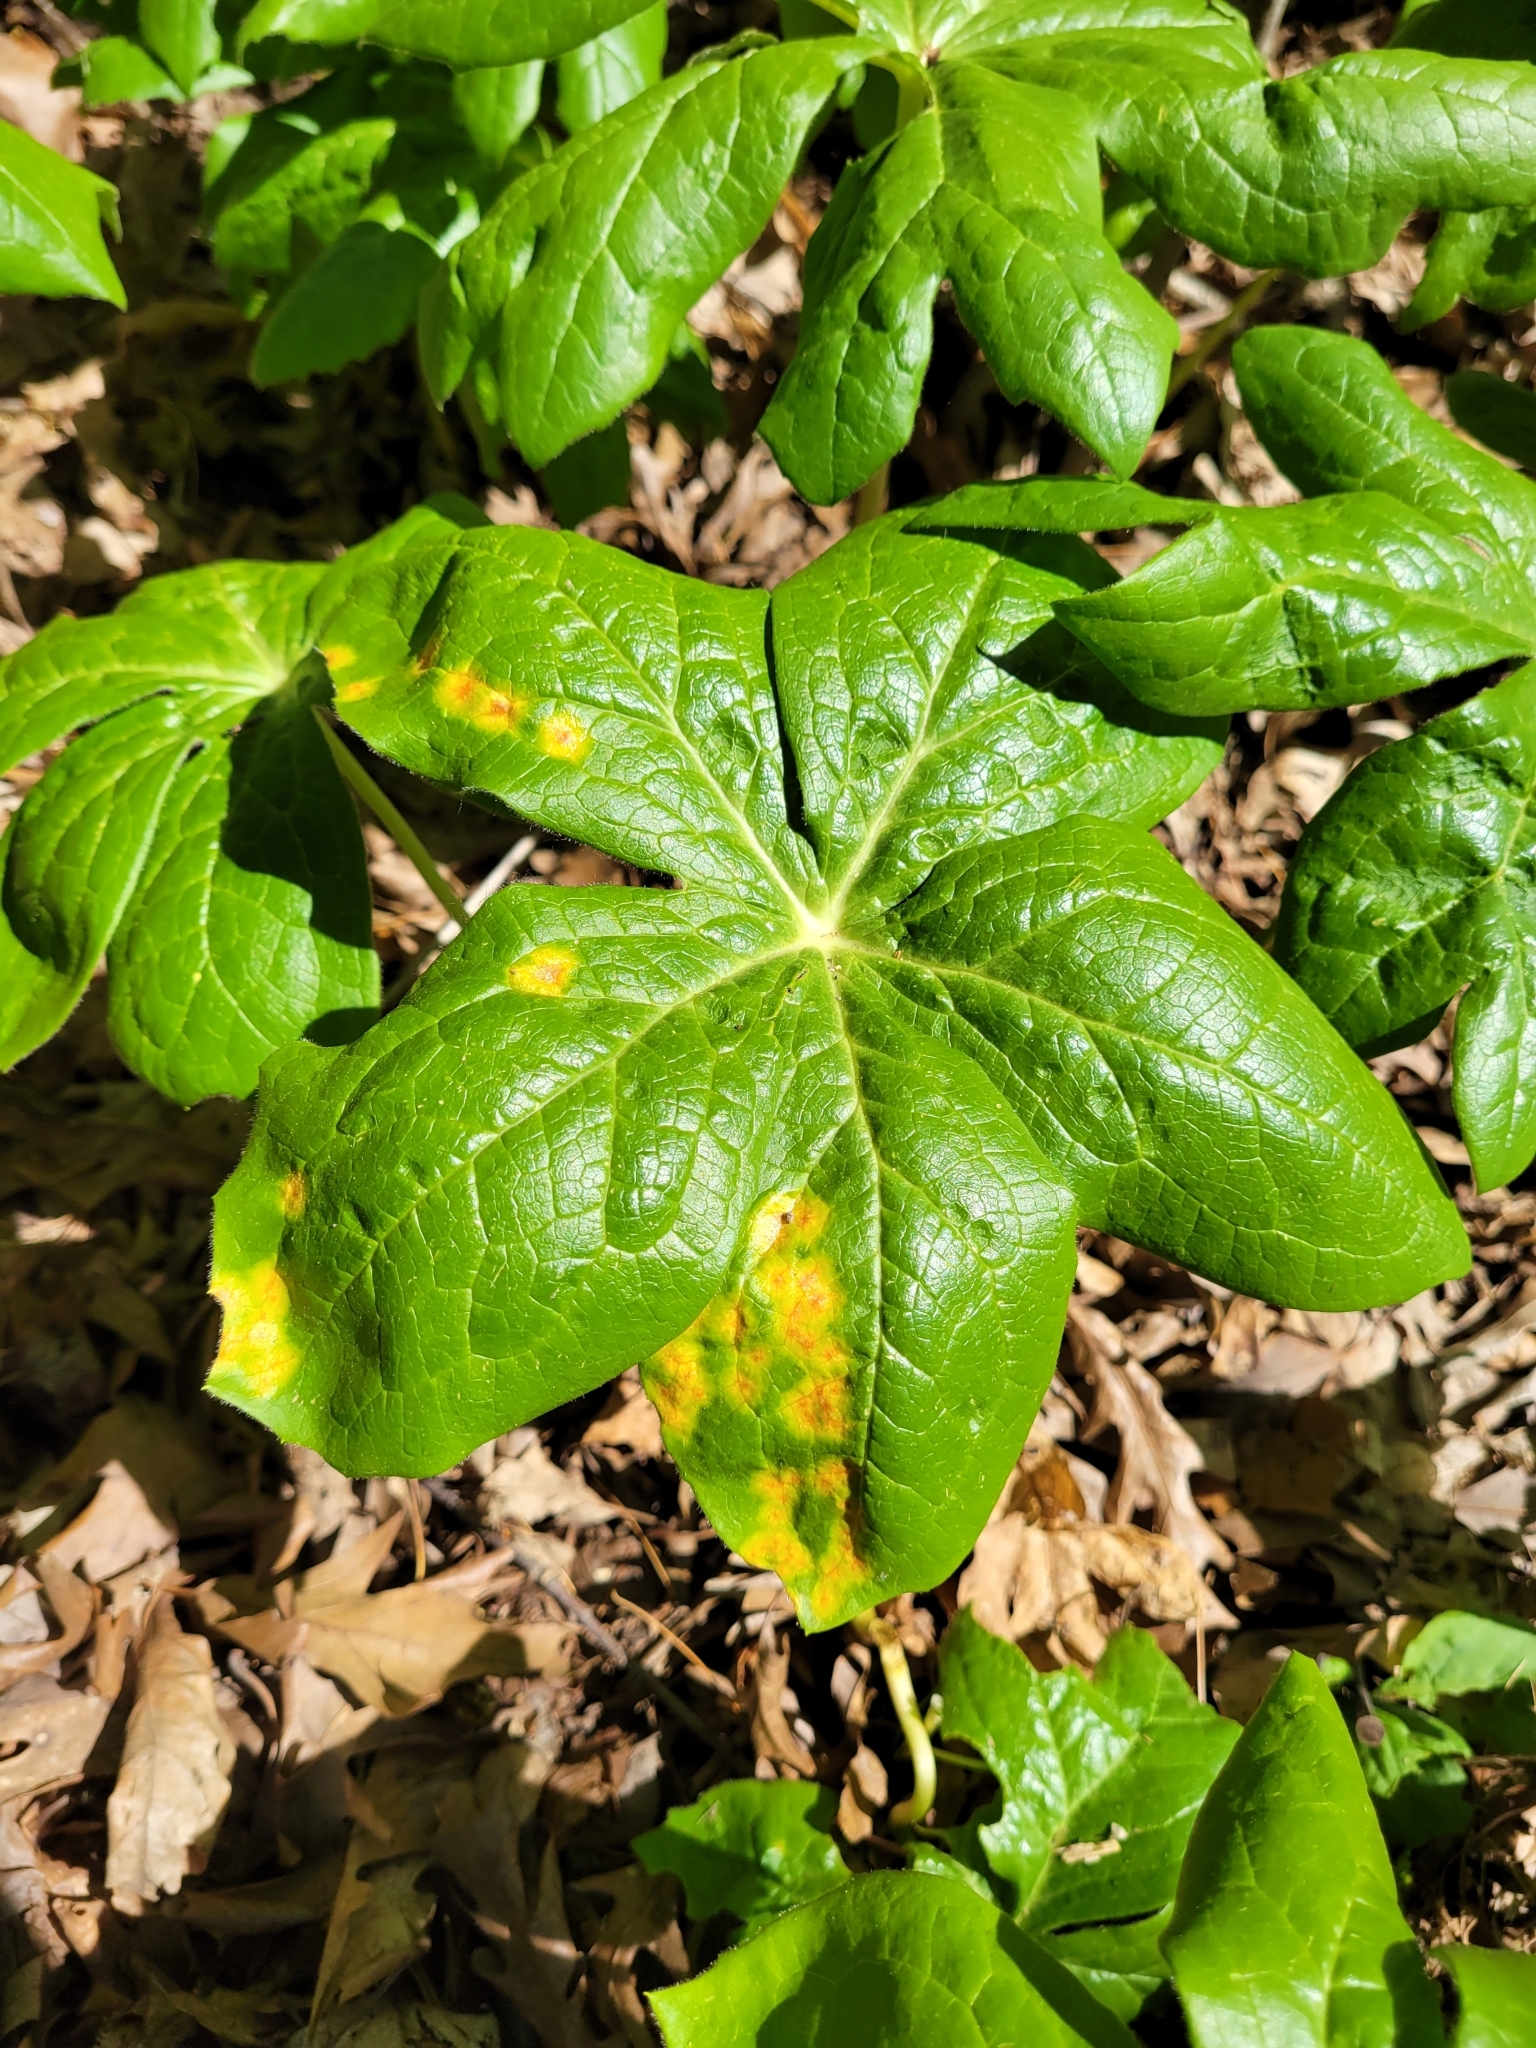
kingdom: Fungi
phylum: Basidiomycota
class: Pucciniomycetes
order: Pucciniales
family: Pucciniaceae
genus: Puccinia
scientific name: Puccinia podophylli
